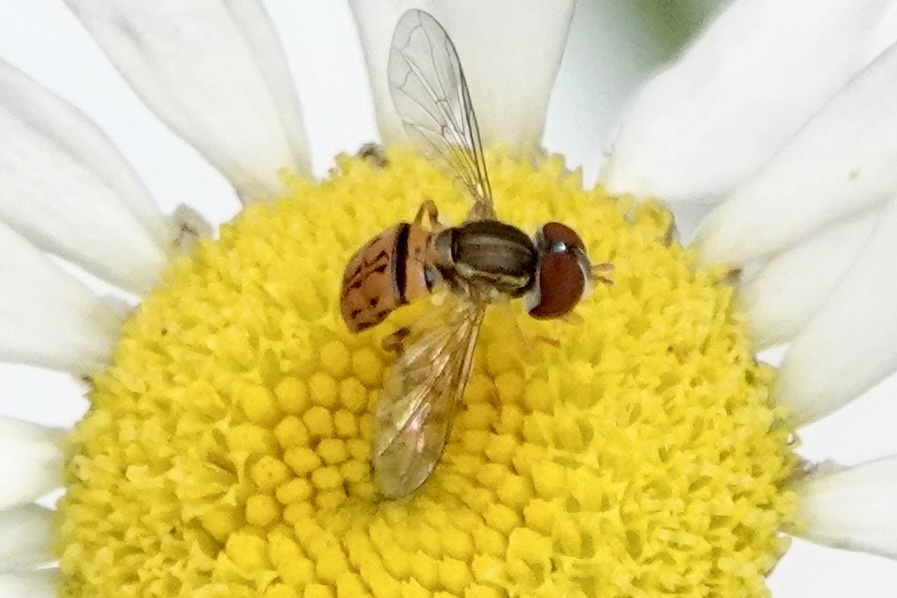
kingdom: Animalia
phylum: Arthropoda
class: Insecta
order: Diptera
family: Syrphidae
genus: Toxomerus
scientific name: Toxomerus boscii
